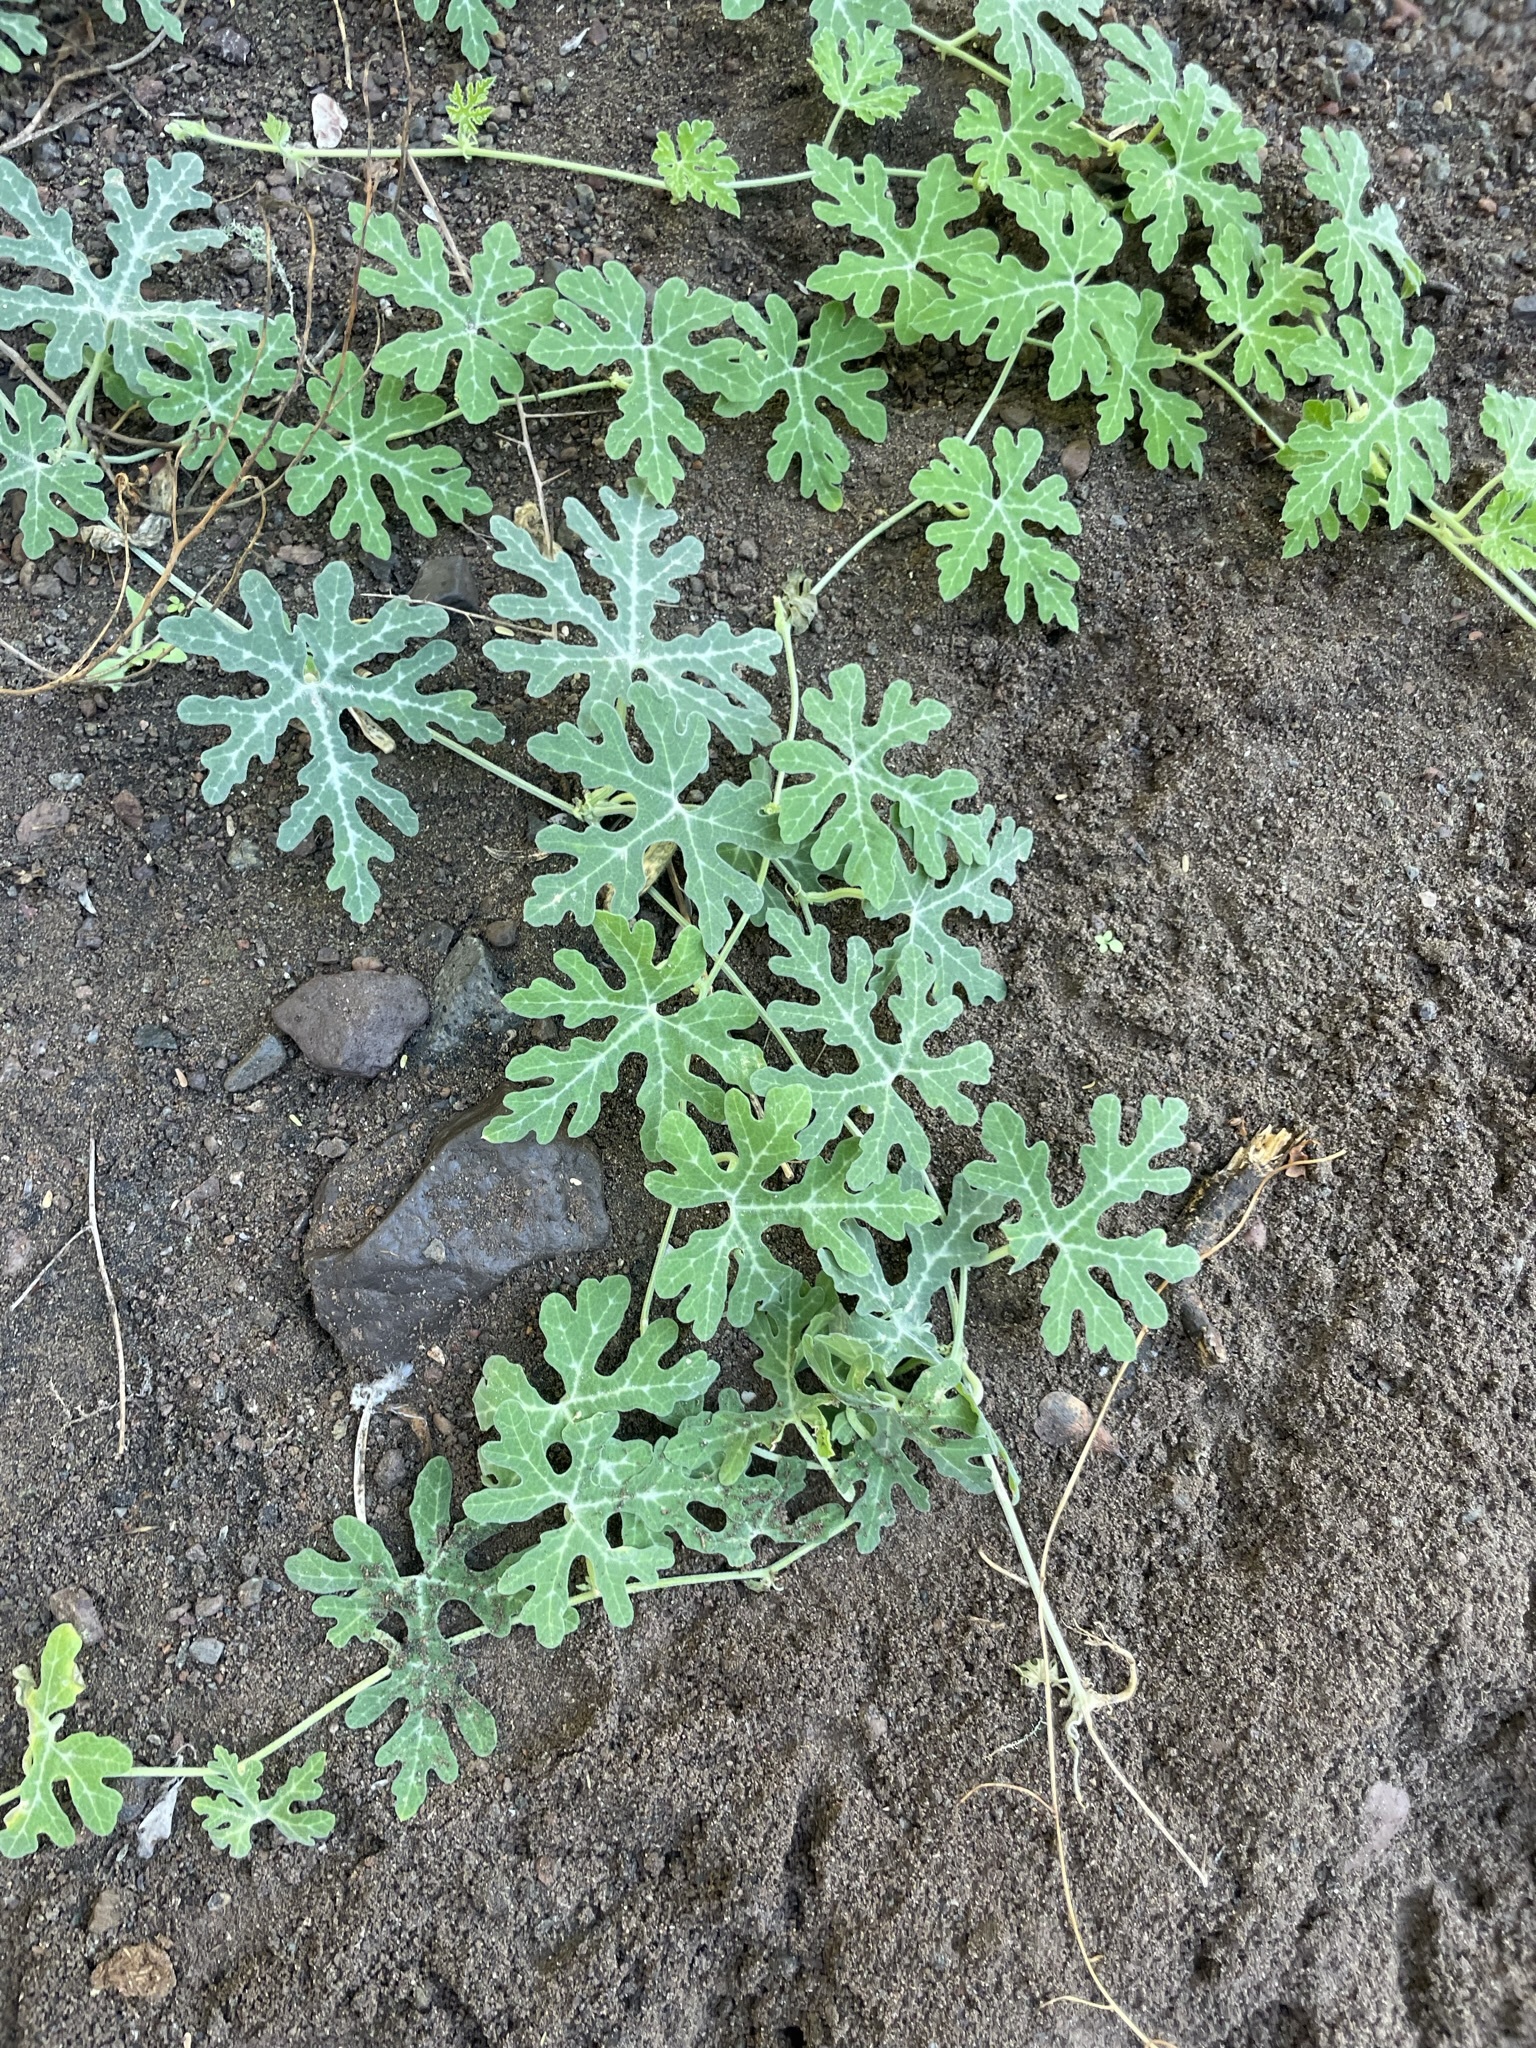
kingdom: Plantae
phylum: Tracheophyta
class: Magnoliopsida
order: Cucurbitales
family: Cucurbitaceae
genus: Cucurbita
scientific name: Cucurbita cordata
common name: Coyote gourd
